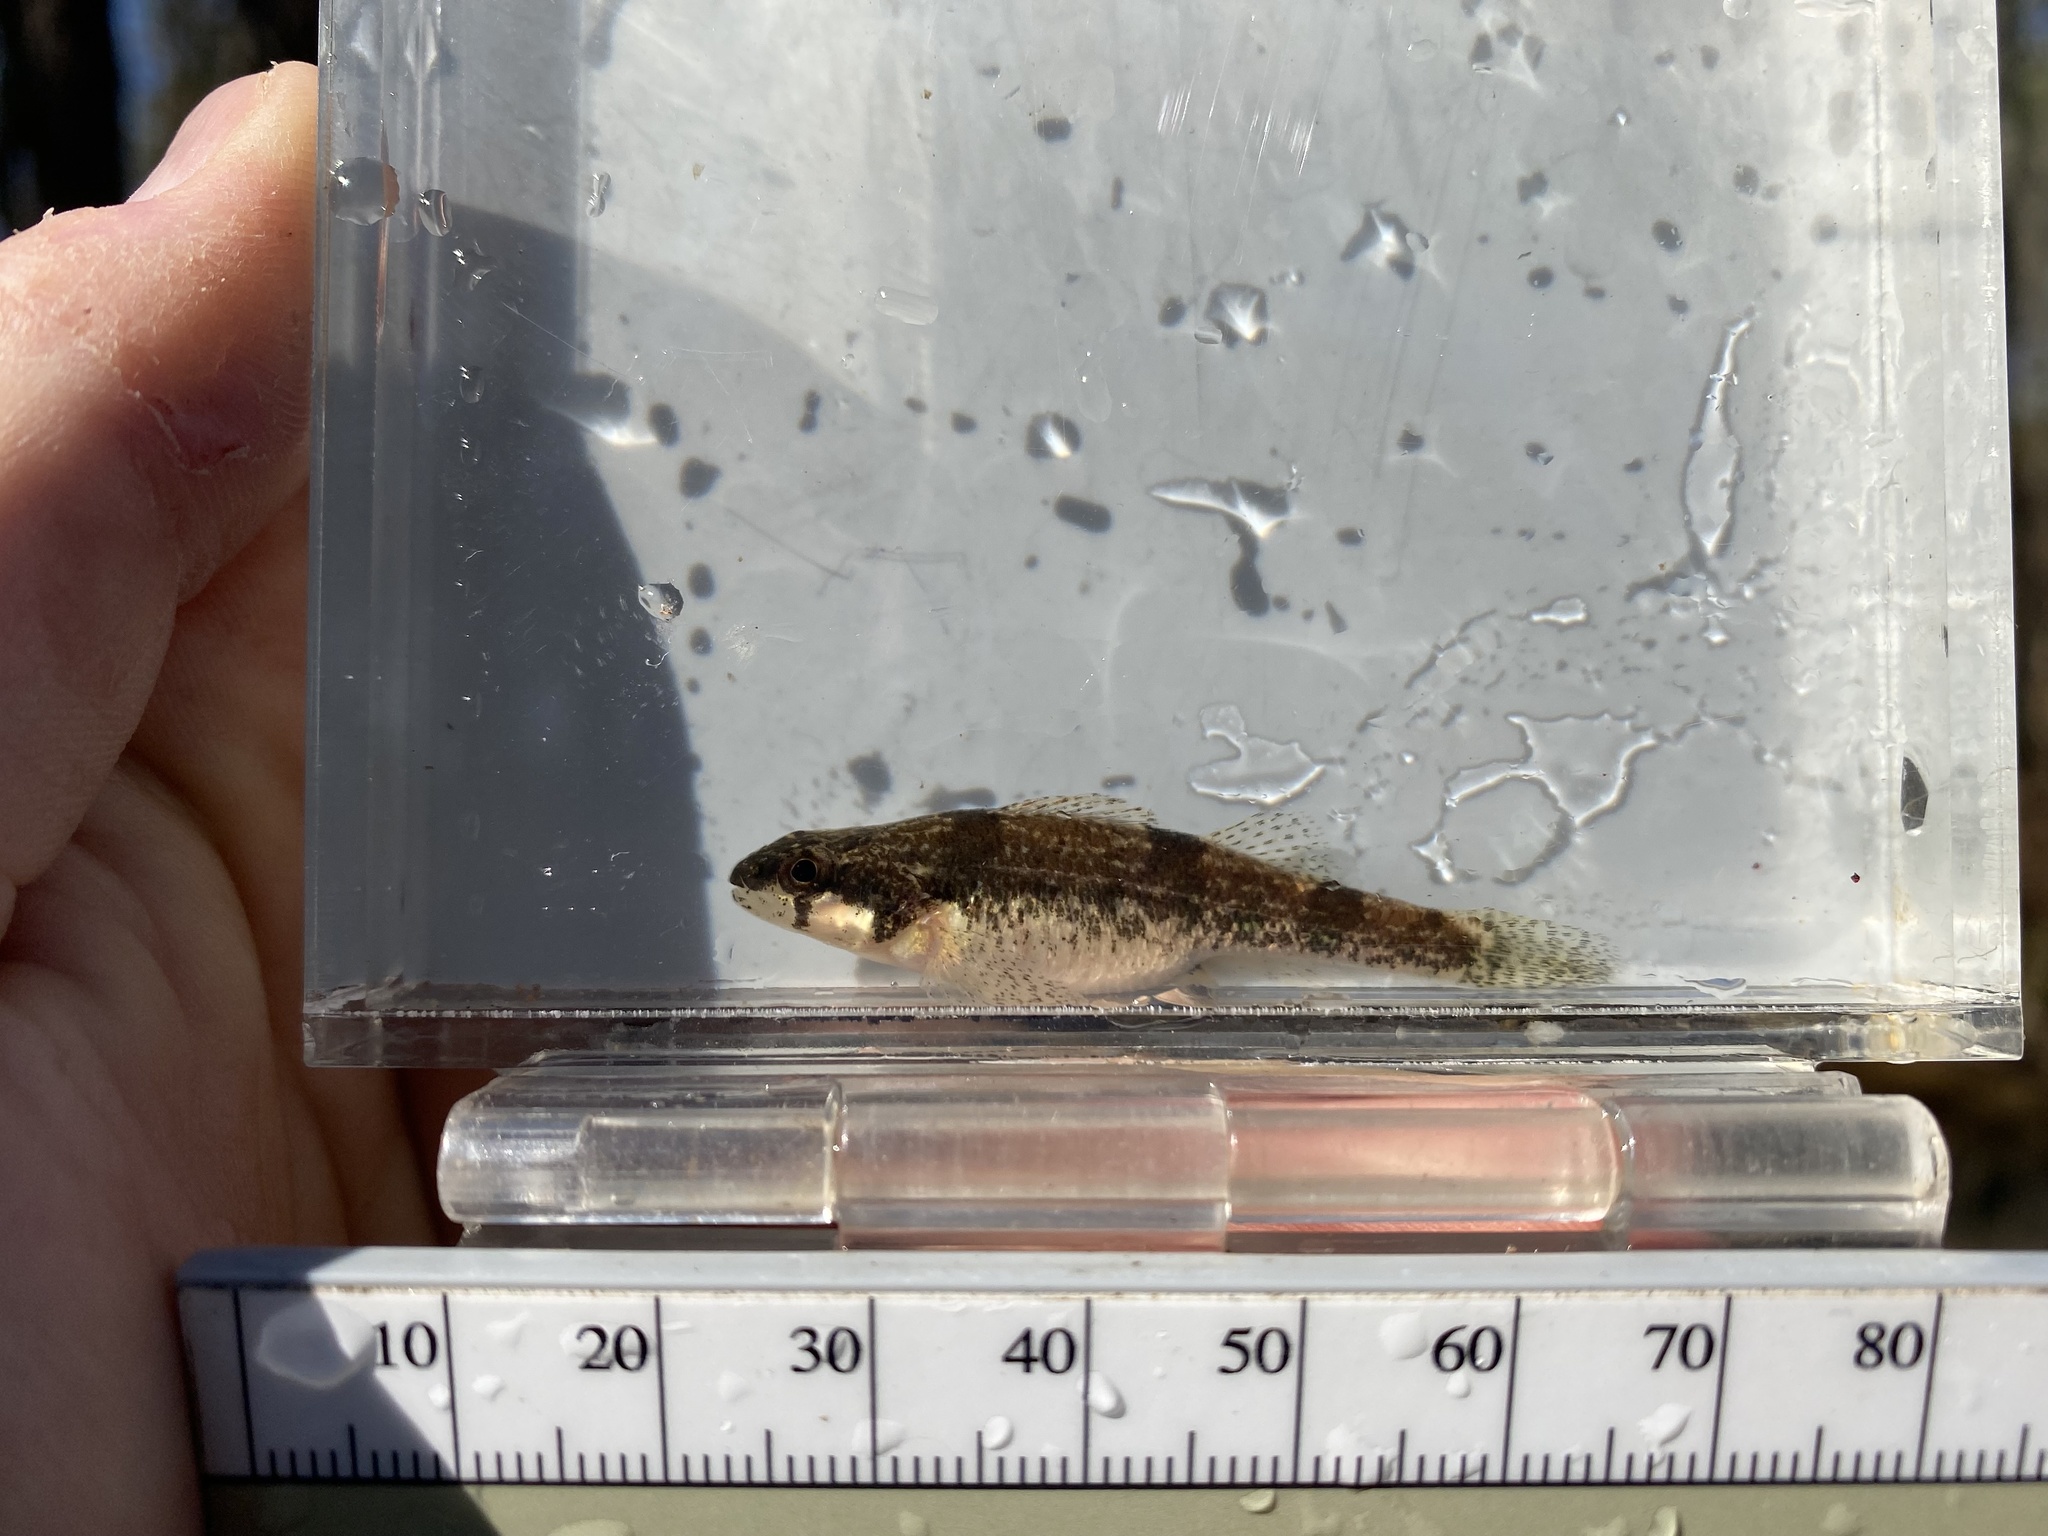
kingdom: Animalia
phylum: Chordata
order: Perciformes
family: Percidae
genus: Etheostoma
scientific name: Etheostoma trisella
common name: Trispot darter
